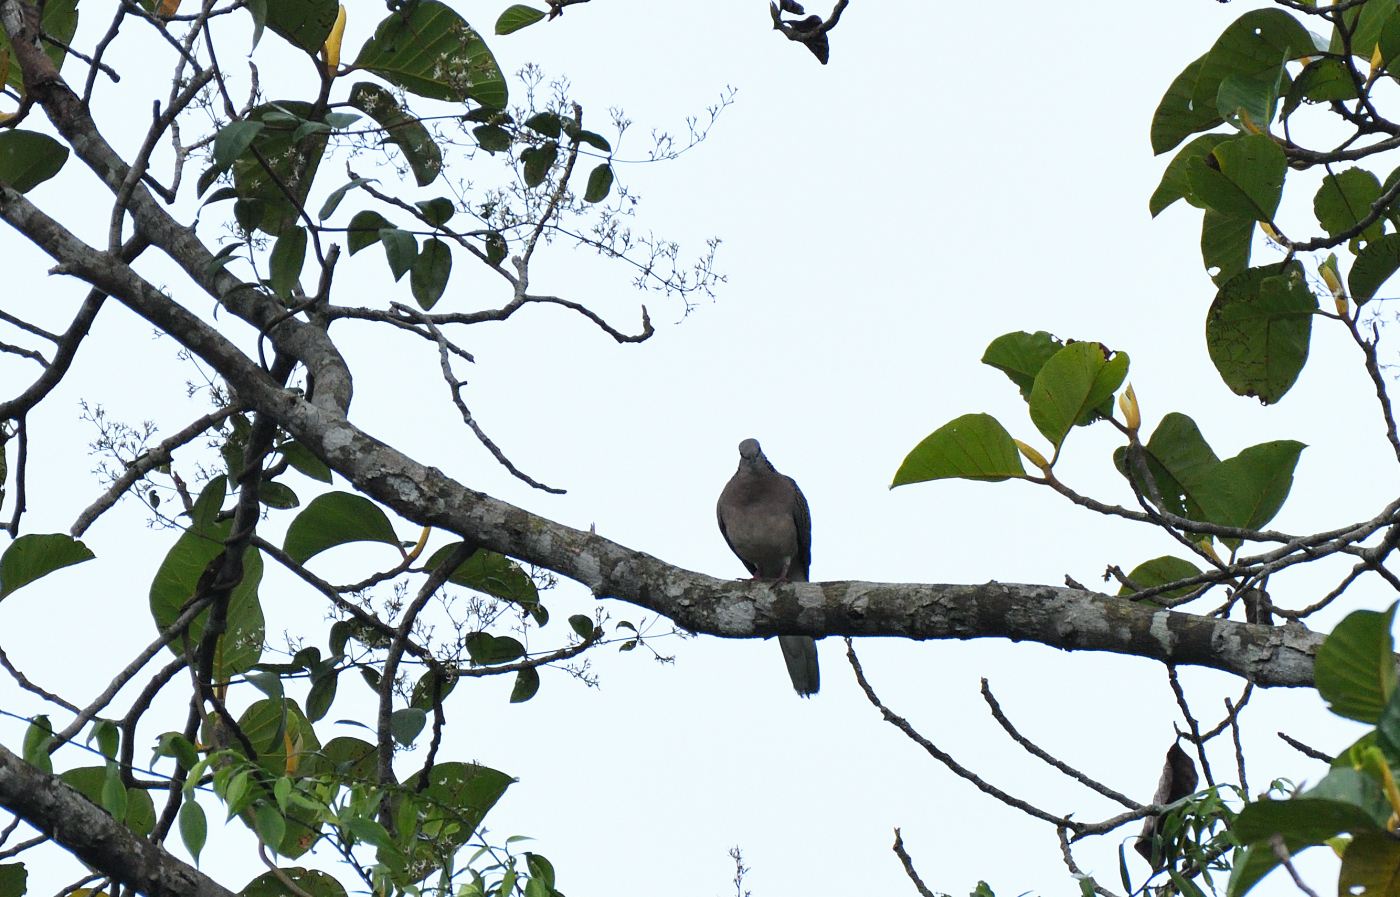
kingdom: Animalia
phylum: Chordata
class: Aves
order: Columbiformes
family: Columbidae
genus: Spilopelia
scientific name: Spilopelia chinensis
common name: Spotted dove
